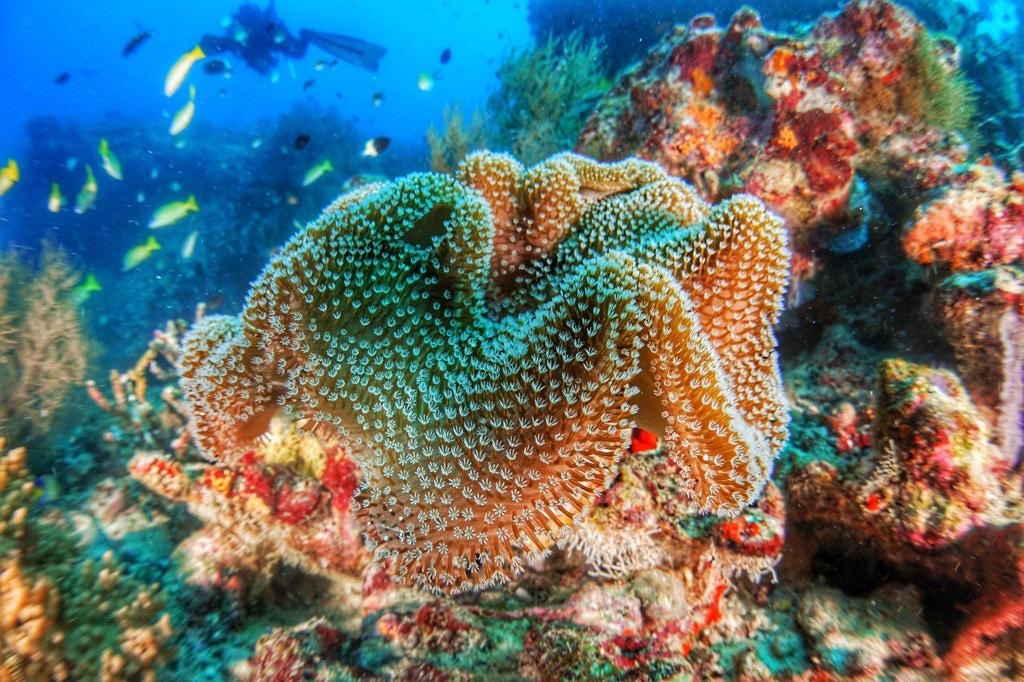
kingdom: Animalia
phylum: Cnidaria
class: Anthozoa
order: Malacalcyonacea
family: Sarcophytidae
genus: Sarcophyton
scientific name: Sarcophyton
